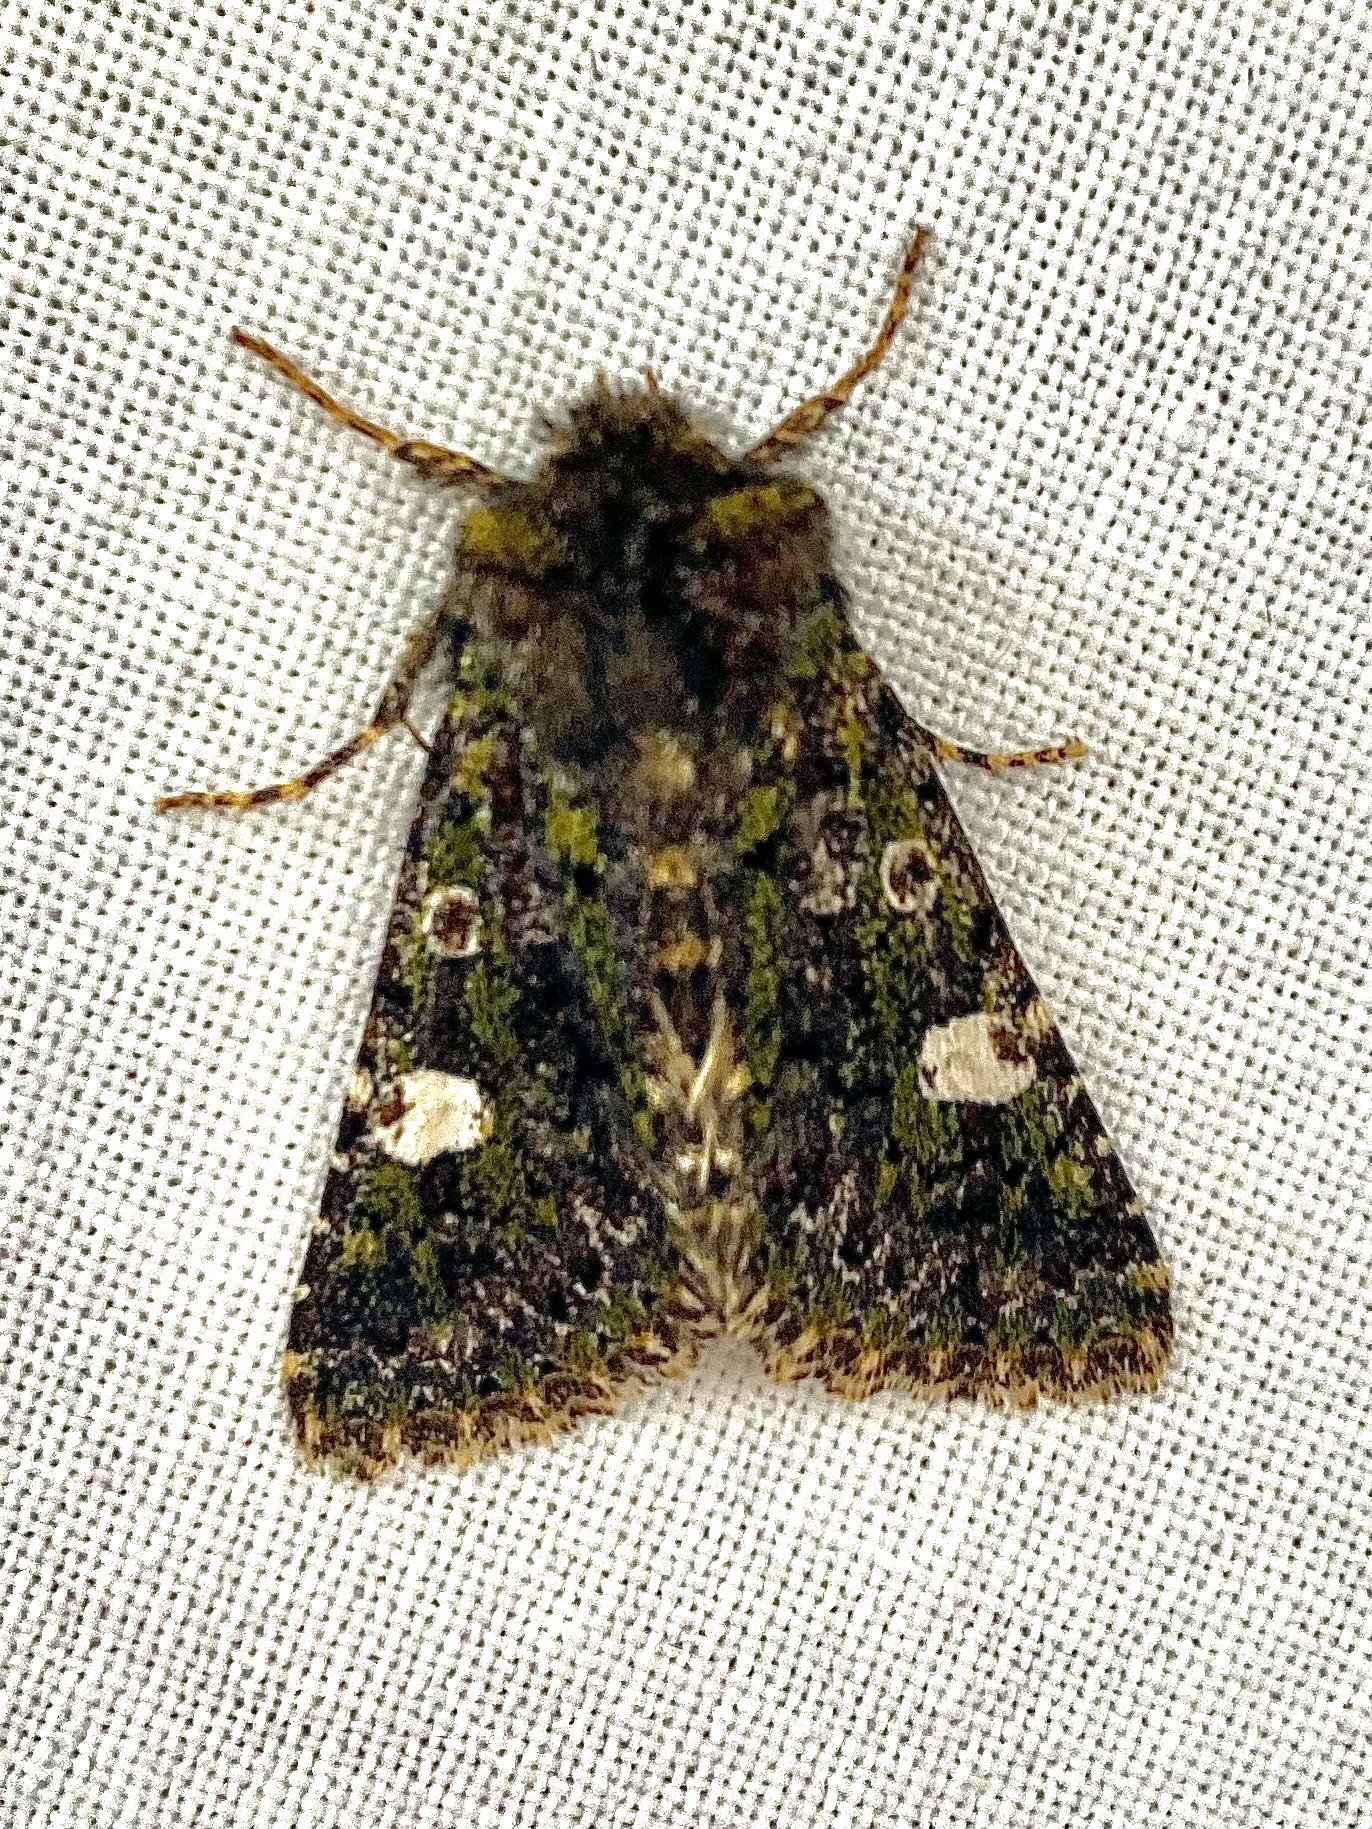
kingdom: Animalia
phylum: Arthropoda
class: Insecta
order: Lepidoptera
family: Noctuidae
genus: Valeria
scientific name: Valeria oleagina
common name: Green-brindled dot
